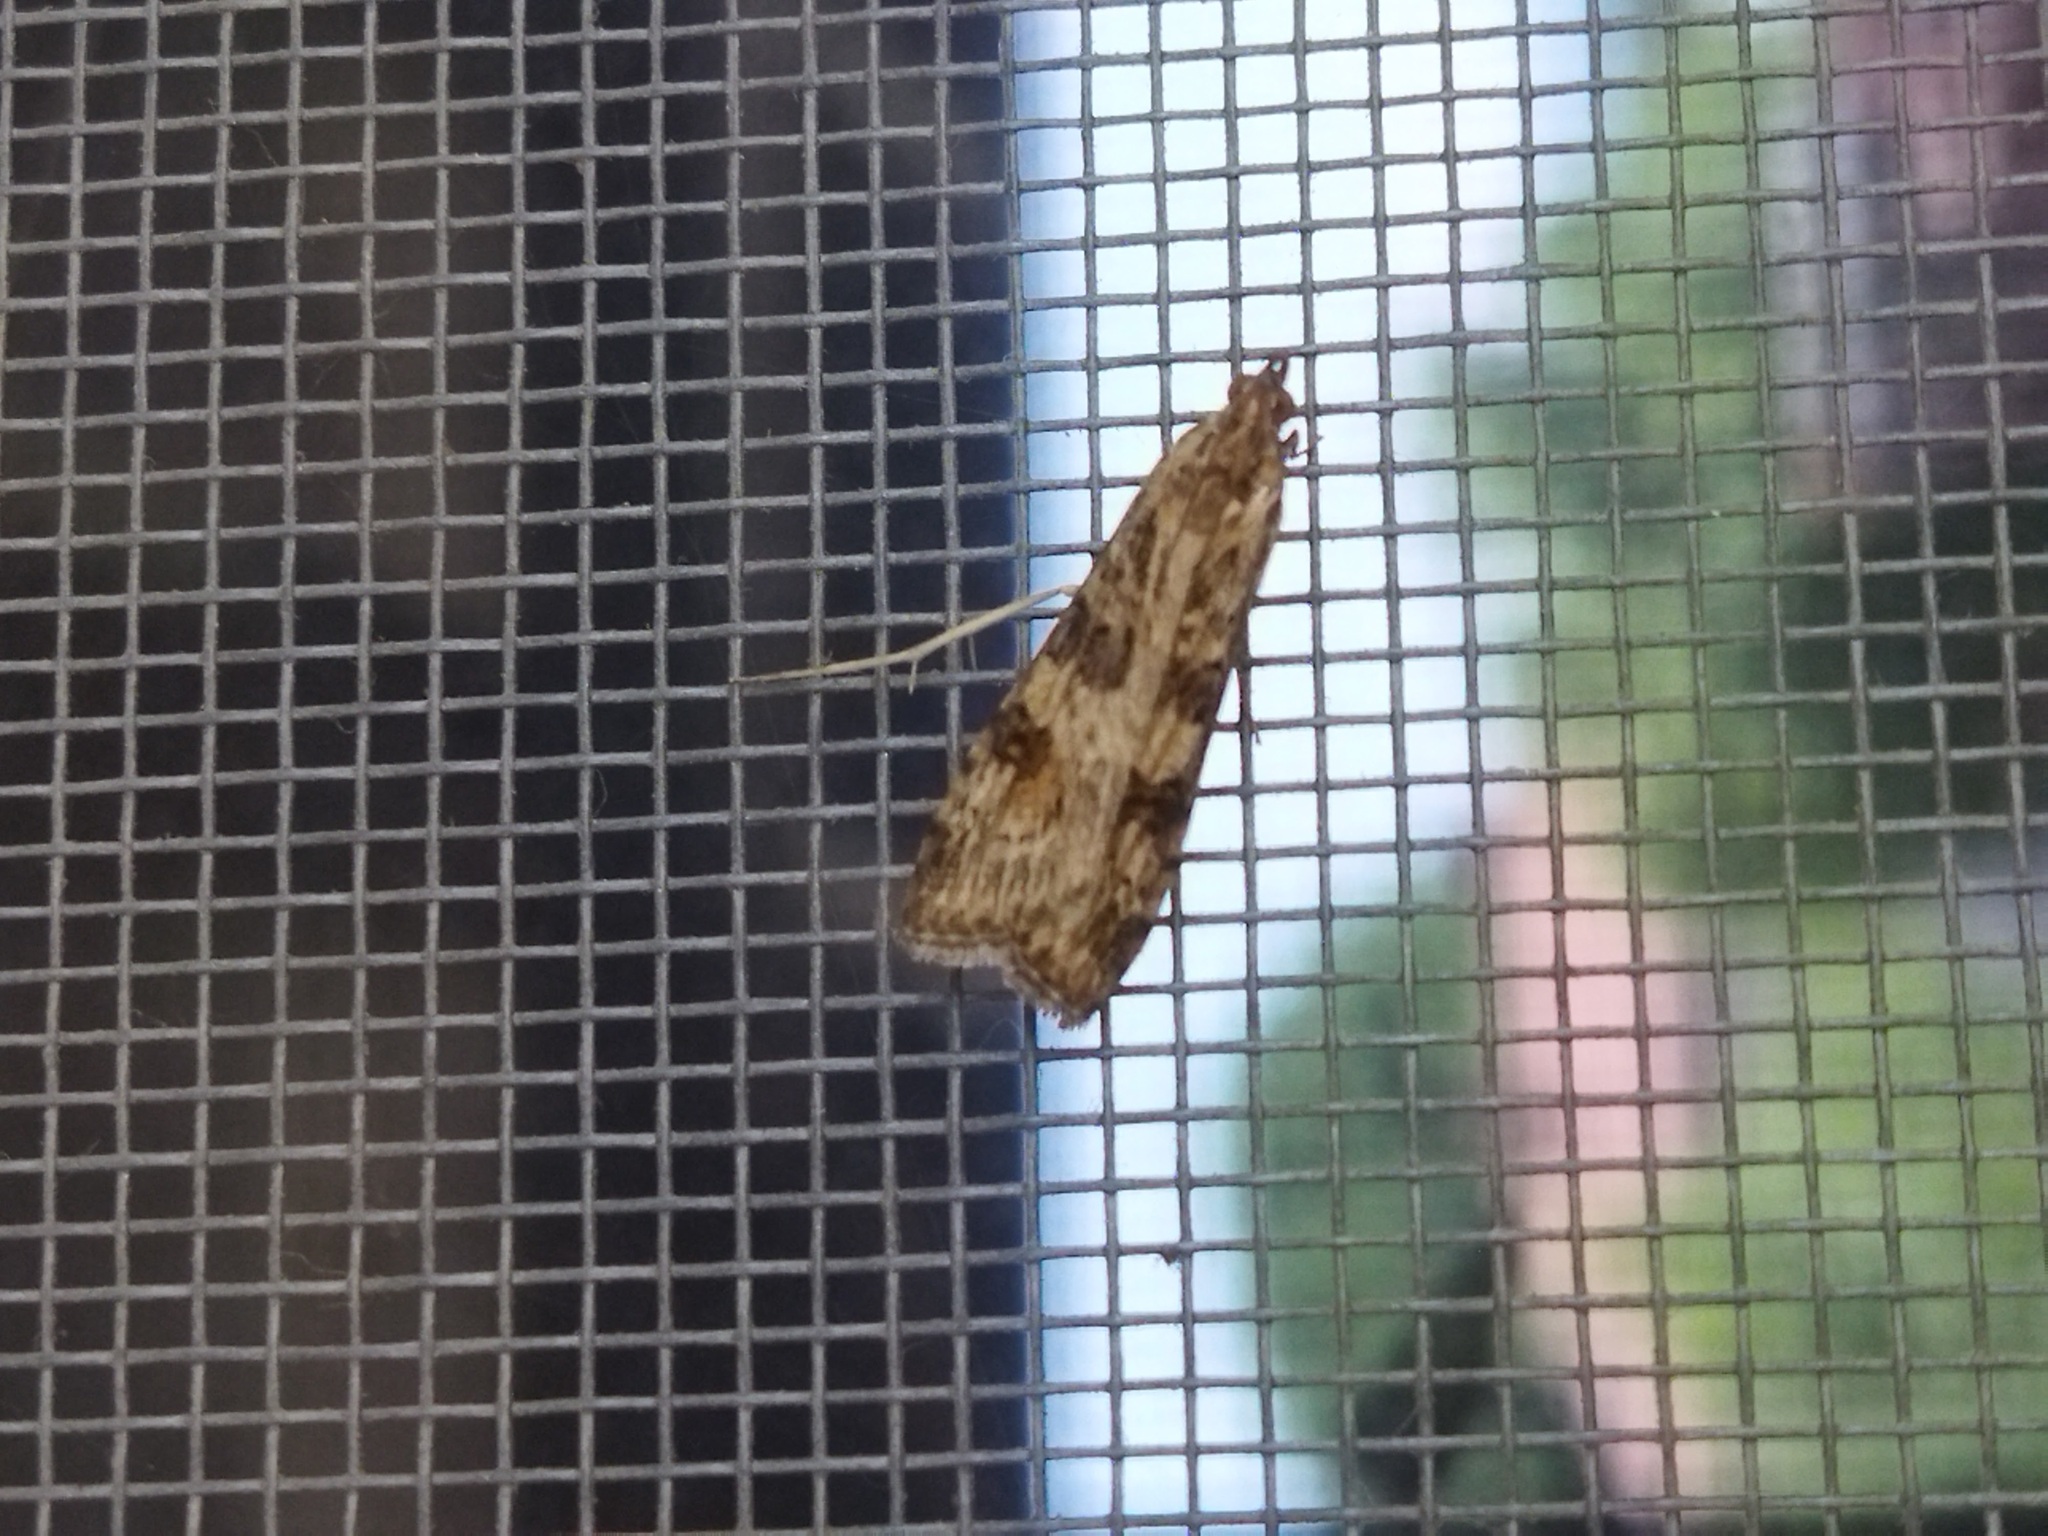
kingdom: Animalia
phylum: Arthropoda
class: Insecta
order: Lepidoptera
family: Crambidae
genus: Nomophila
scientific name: Nomophila noctuella
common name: Rush veneer
